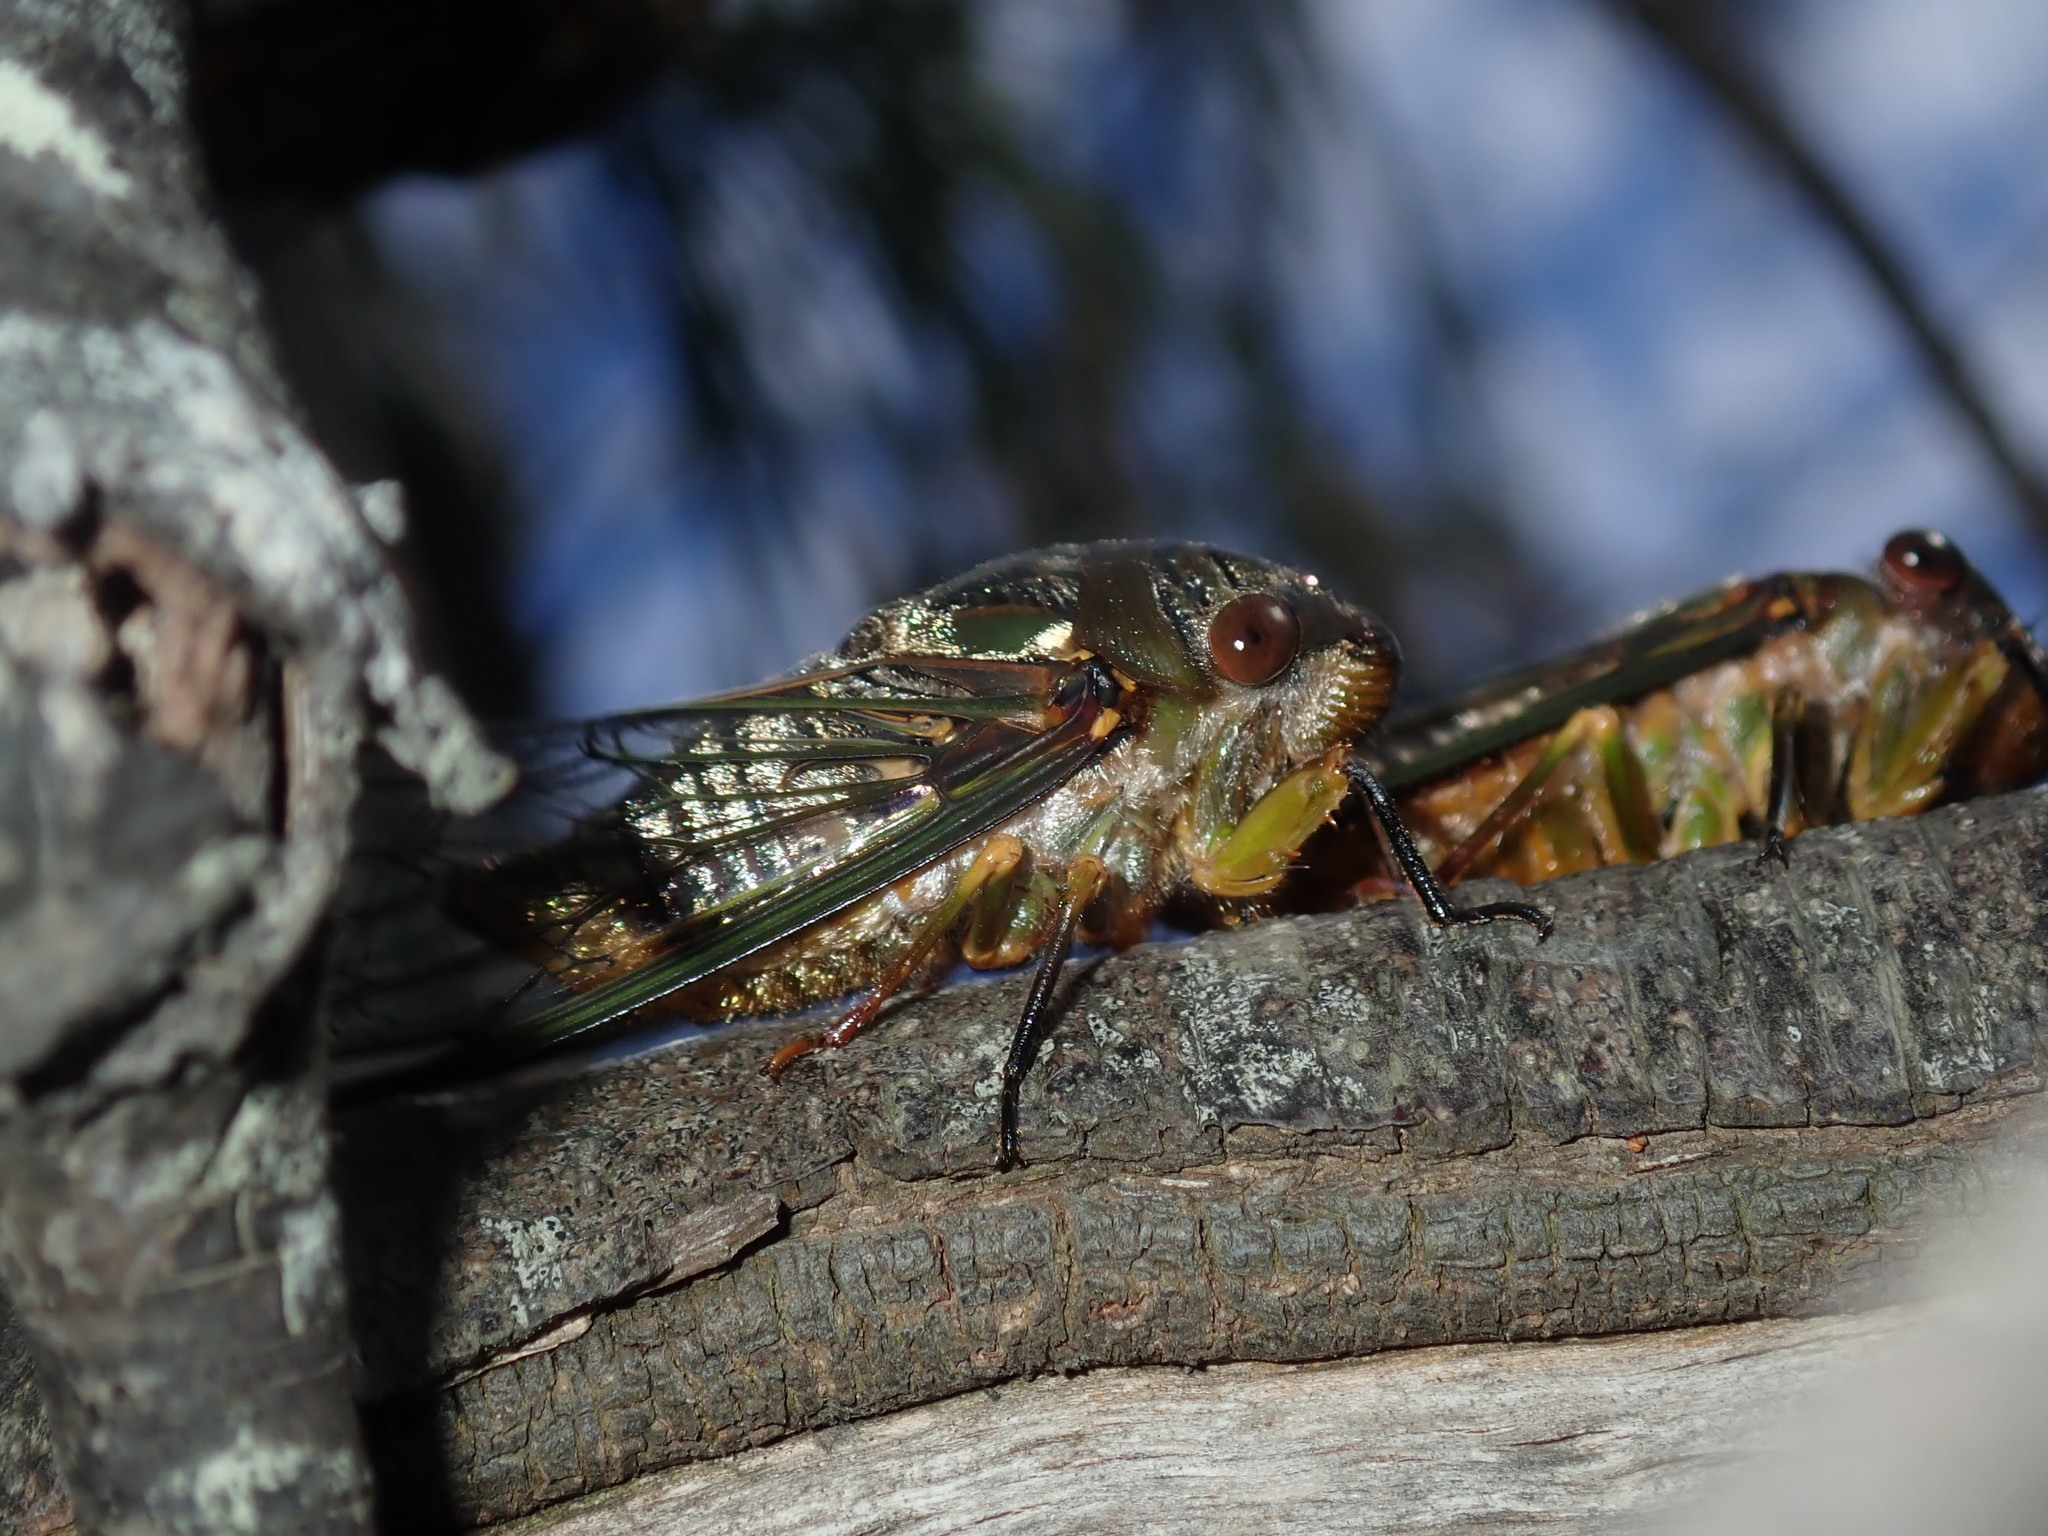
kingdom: Animalia
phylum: Arthropoda
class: Insecta
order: Hemiptera
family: Cicadidae
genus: Psaltoda
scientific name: Psaltoda plaga
